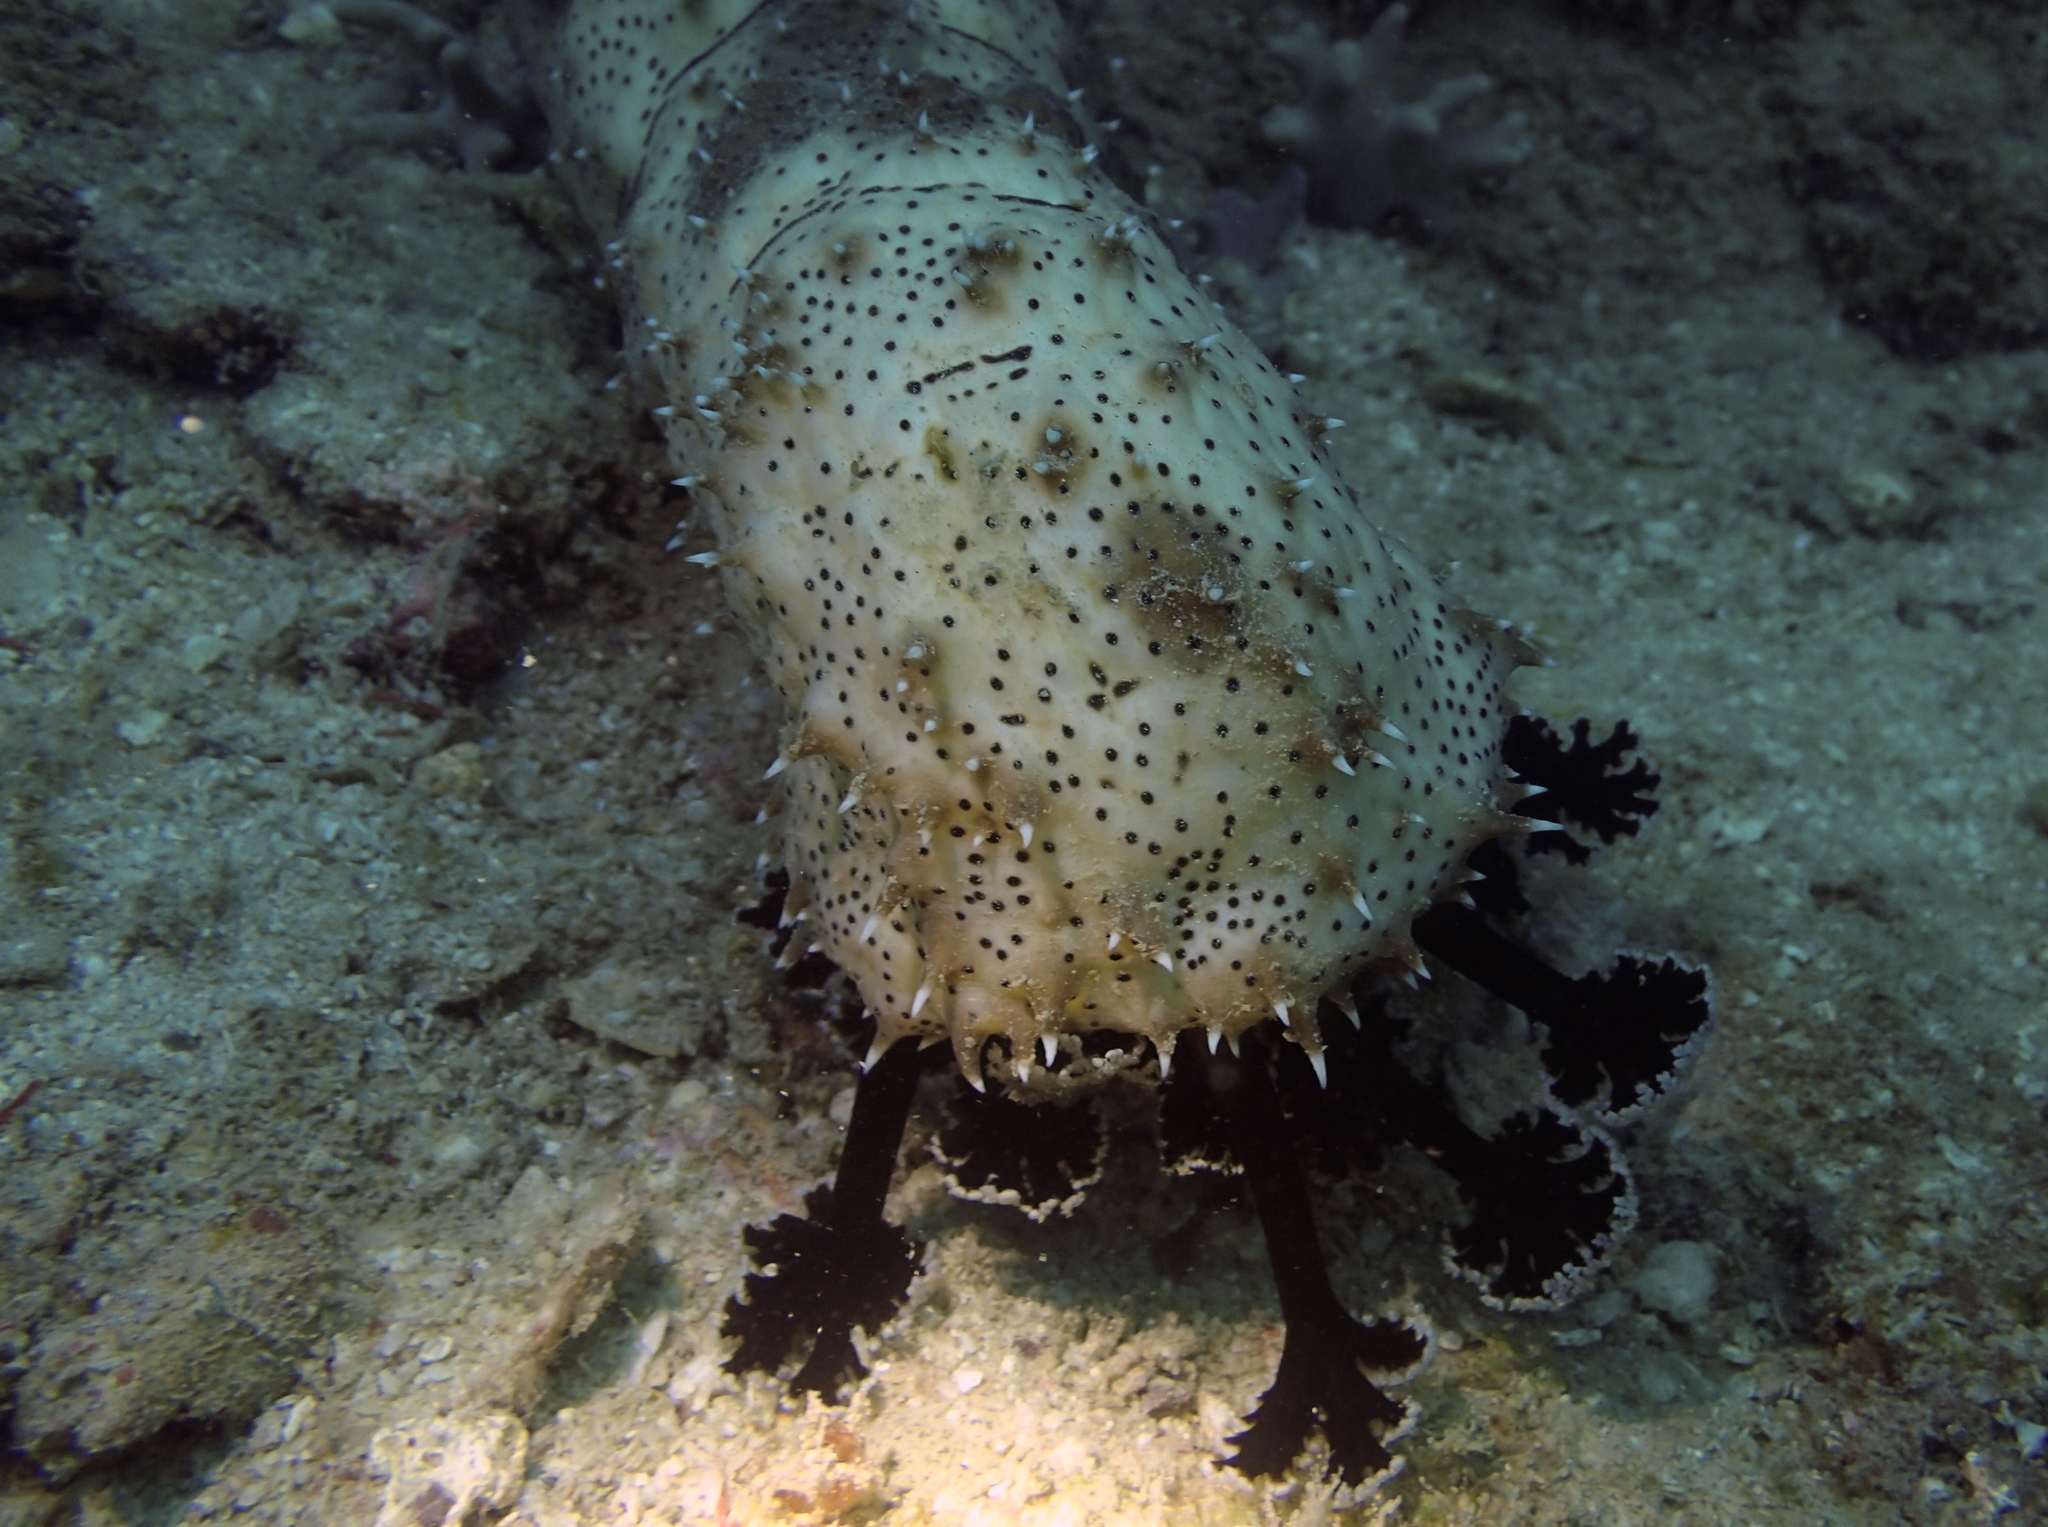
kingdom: Animalia
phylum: Echinodermata
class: Holothuroidea
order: Holothuriida
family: Holothuriidae
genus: Pearsonothuria
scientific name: Pearsonothuria graeffei
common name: Blackspotted sea cucumber
